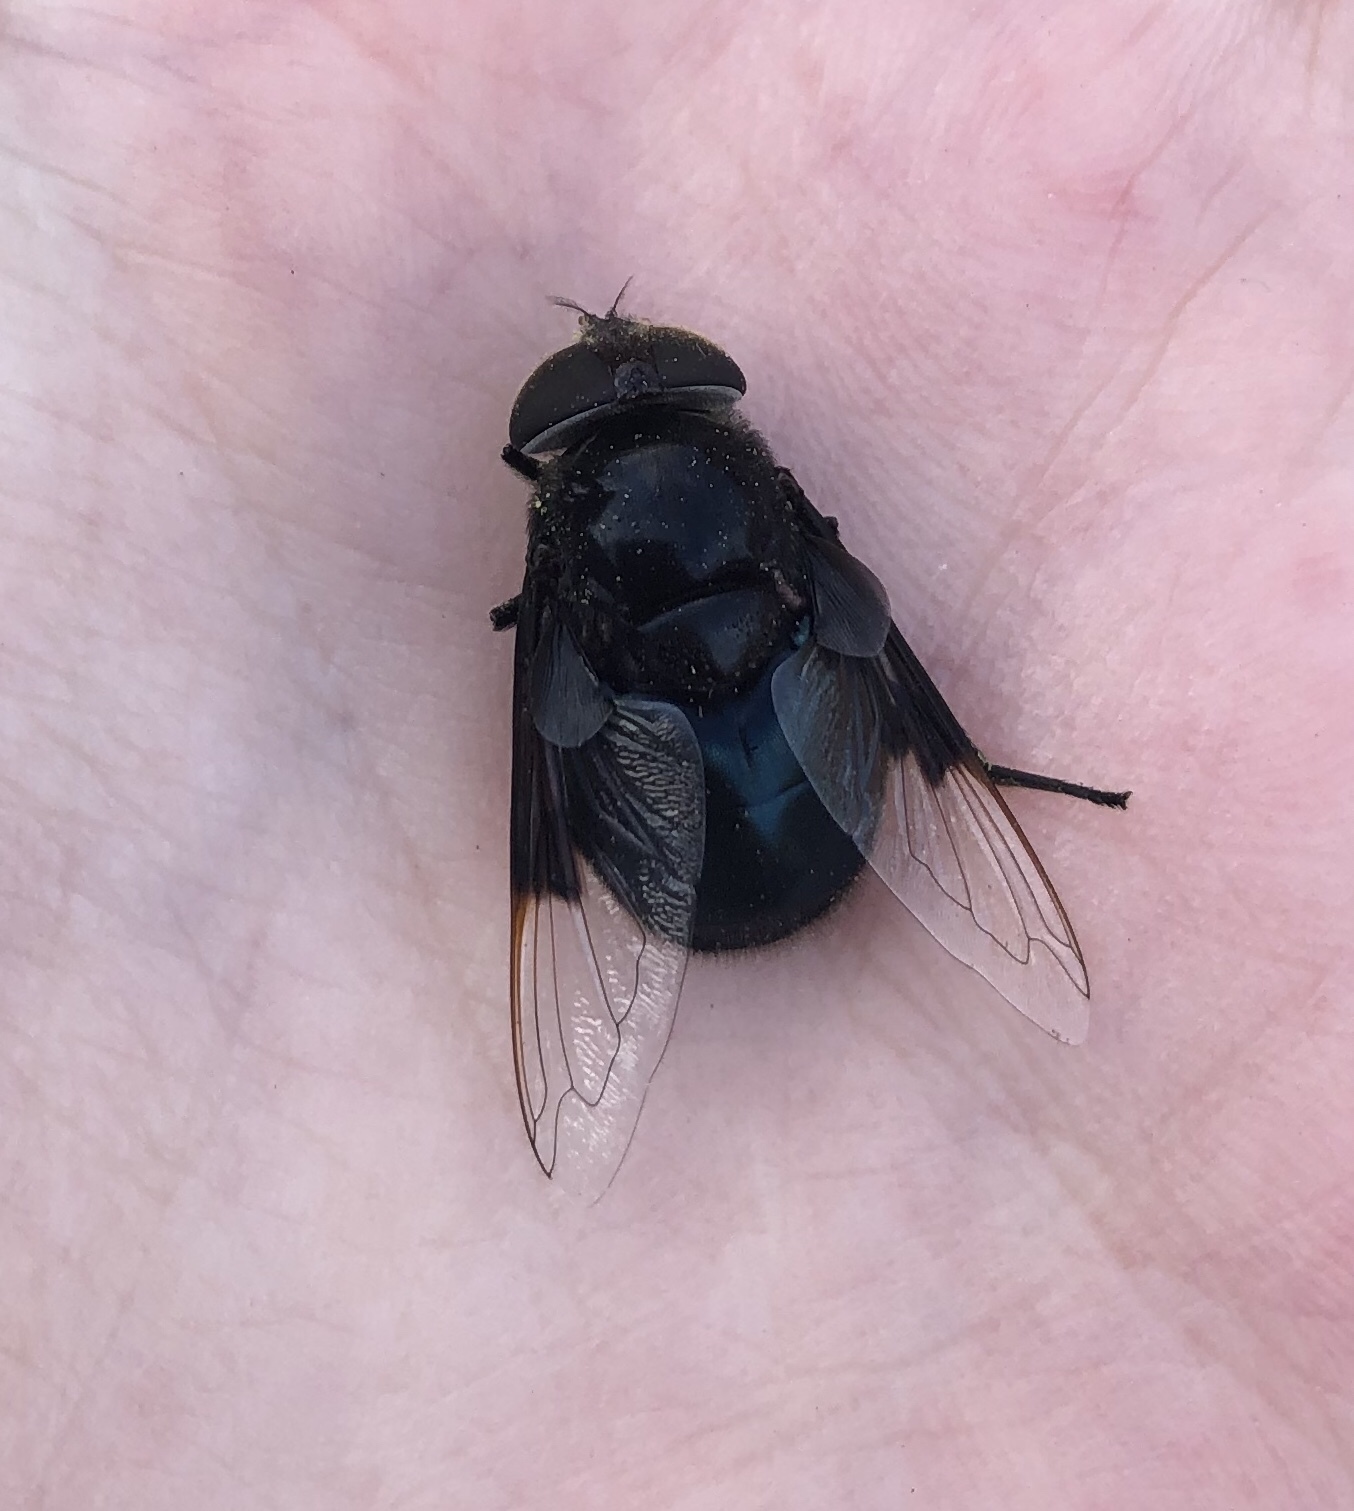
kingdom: Animalia
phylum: Arthropoda
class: Insecta
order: Diptera
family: Syrphidae
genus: Copestylum
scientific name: Copestylum mexicanum
